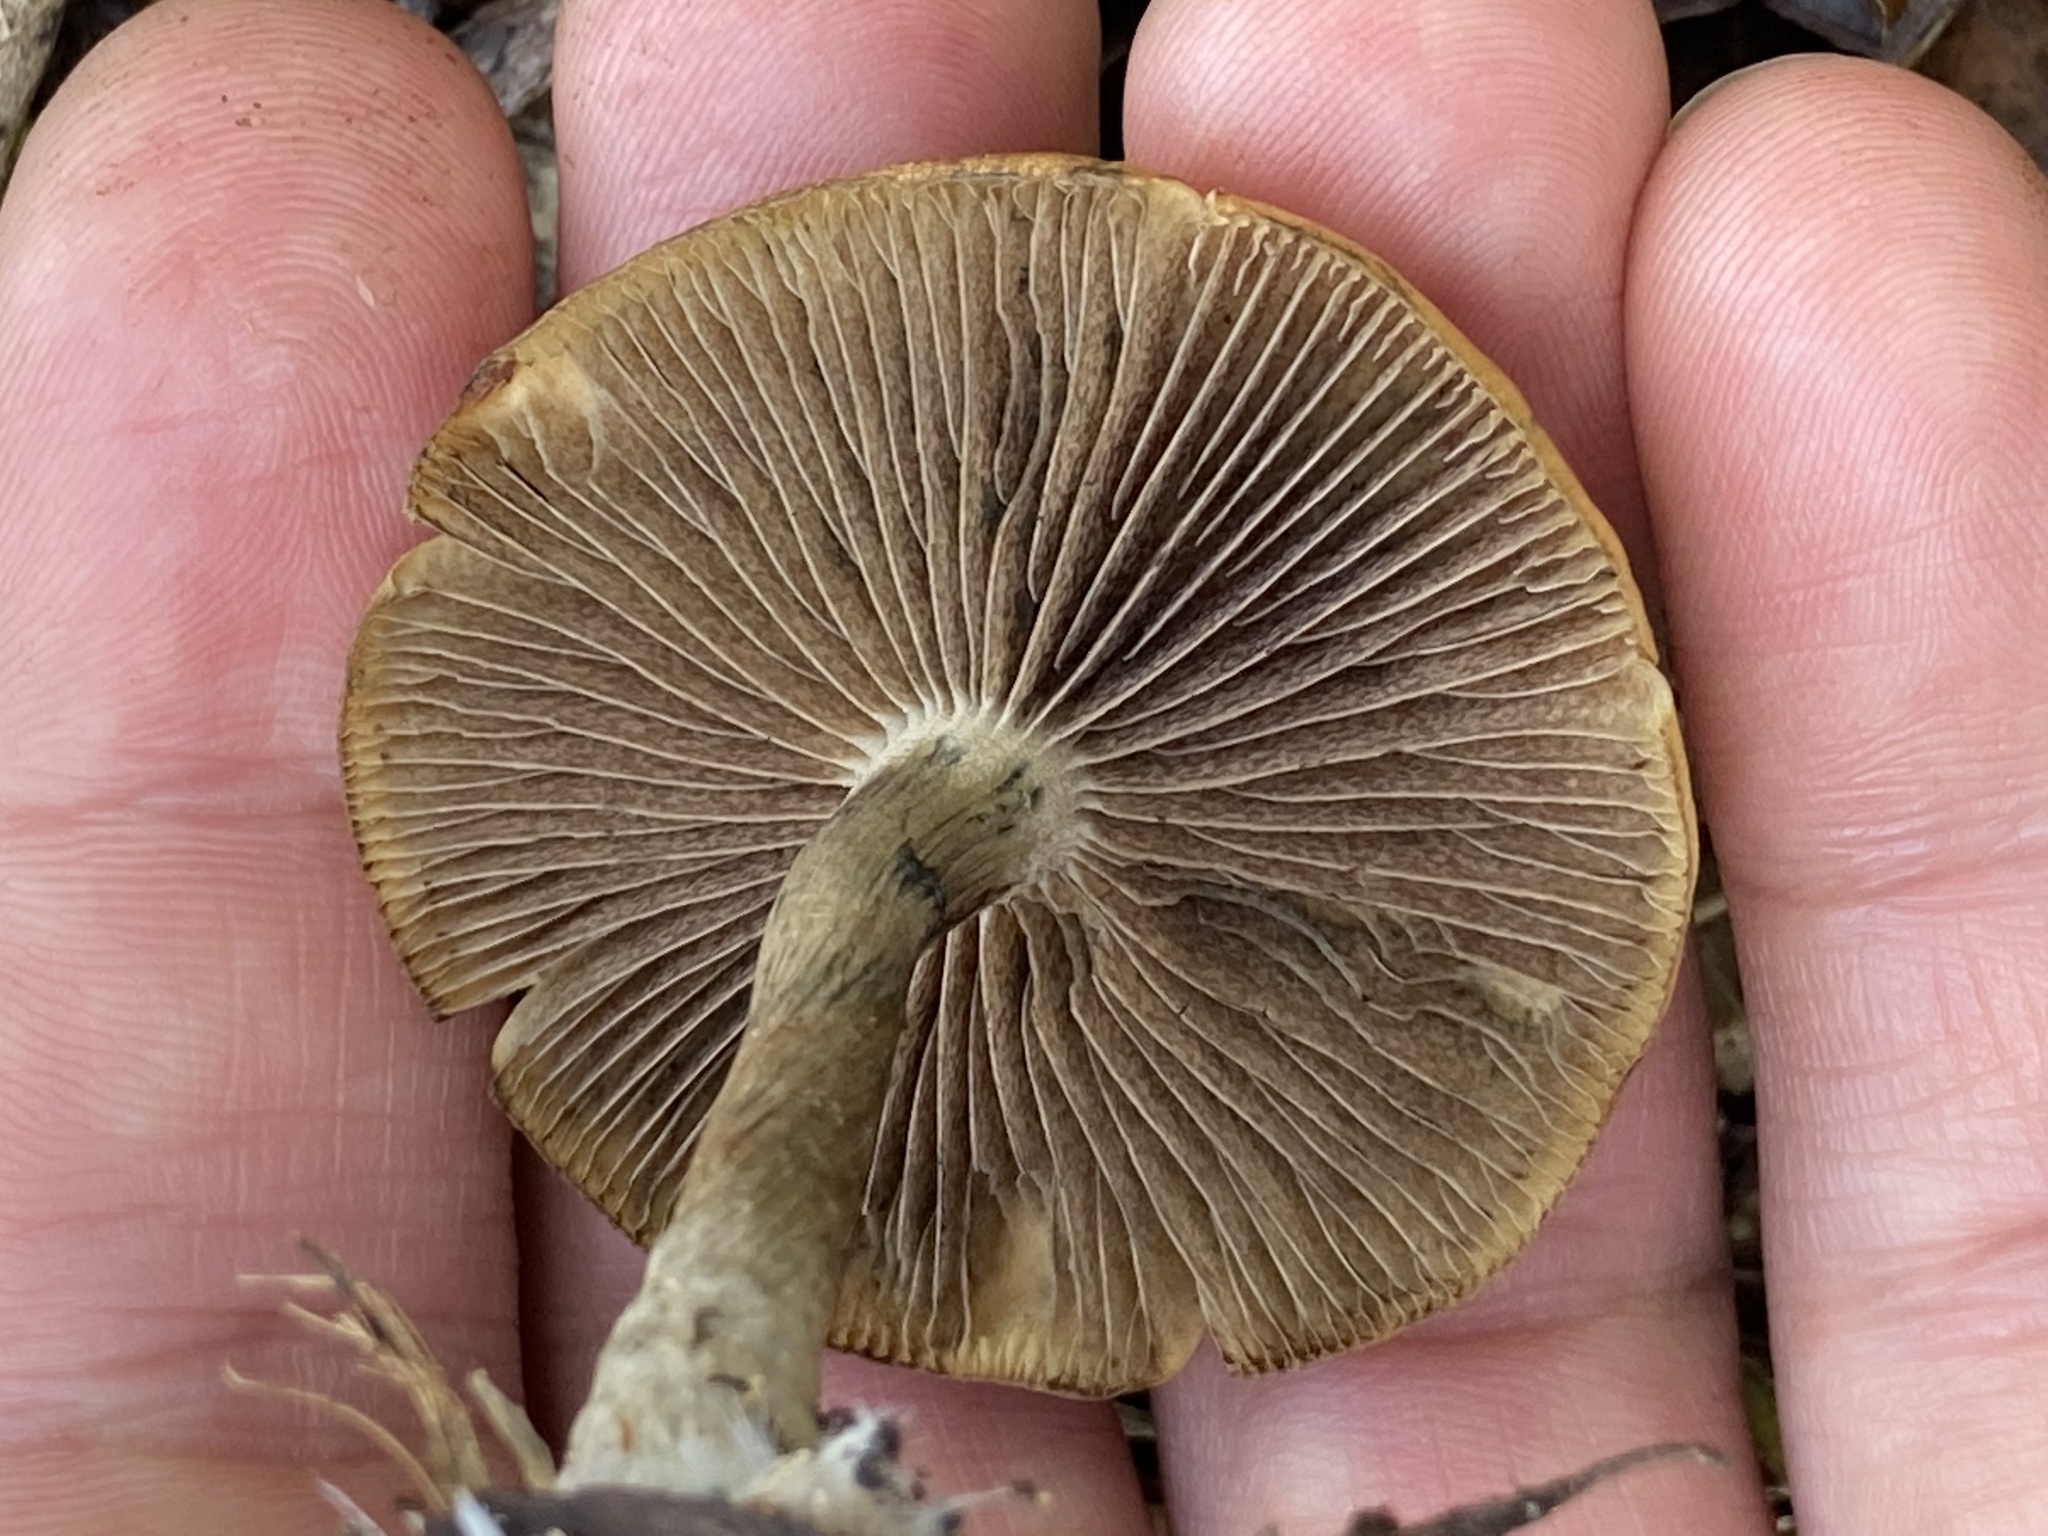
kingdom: Fungi
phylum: Basidiomycota
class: Agaricomycetes
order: Agaricales
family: Hymenogastraceae
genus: Psilocybe
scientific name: Psilocybe subaeruginosa
